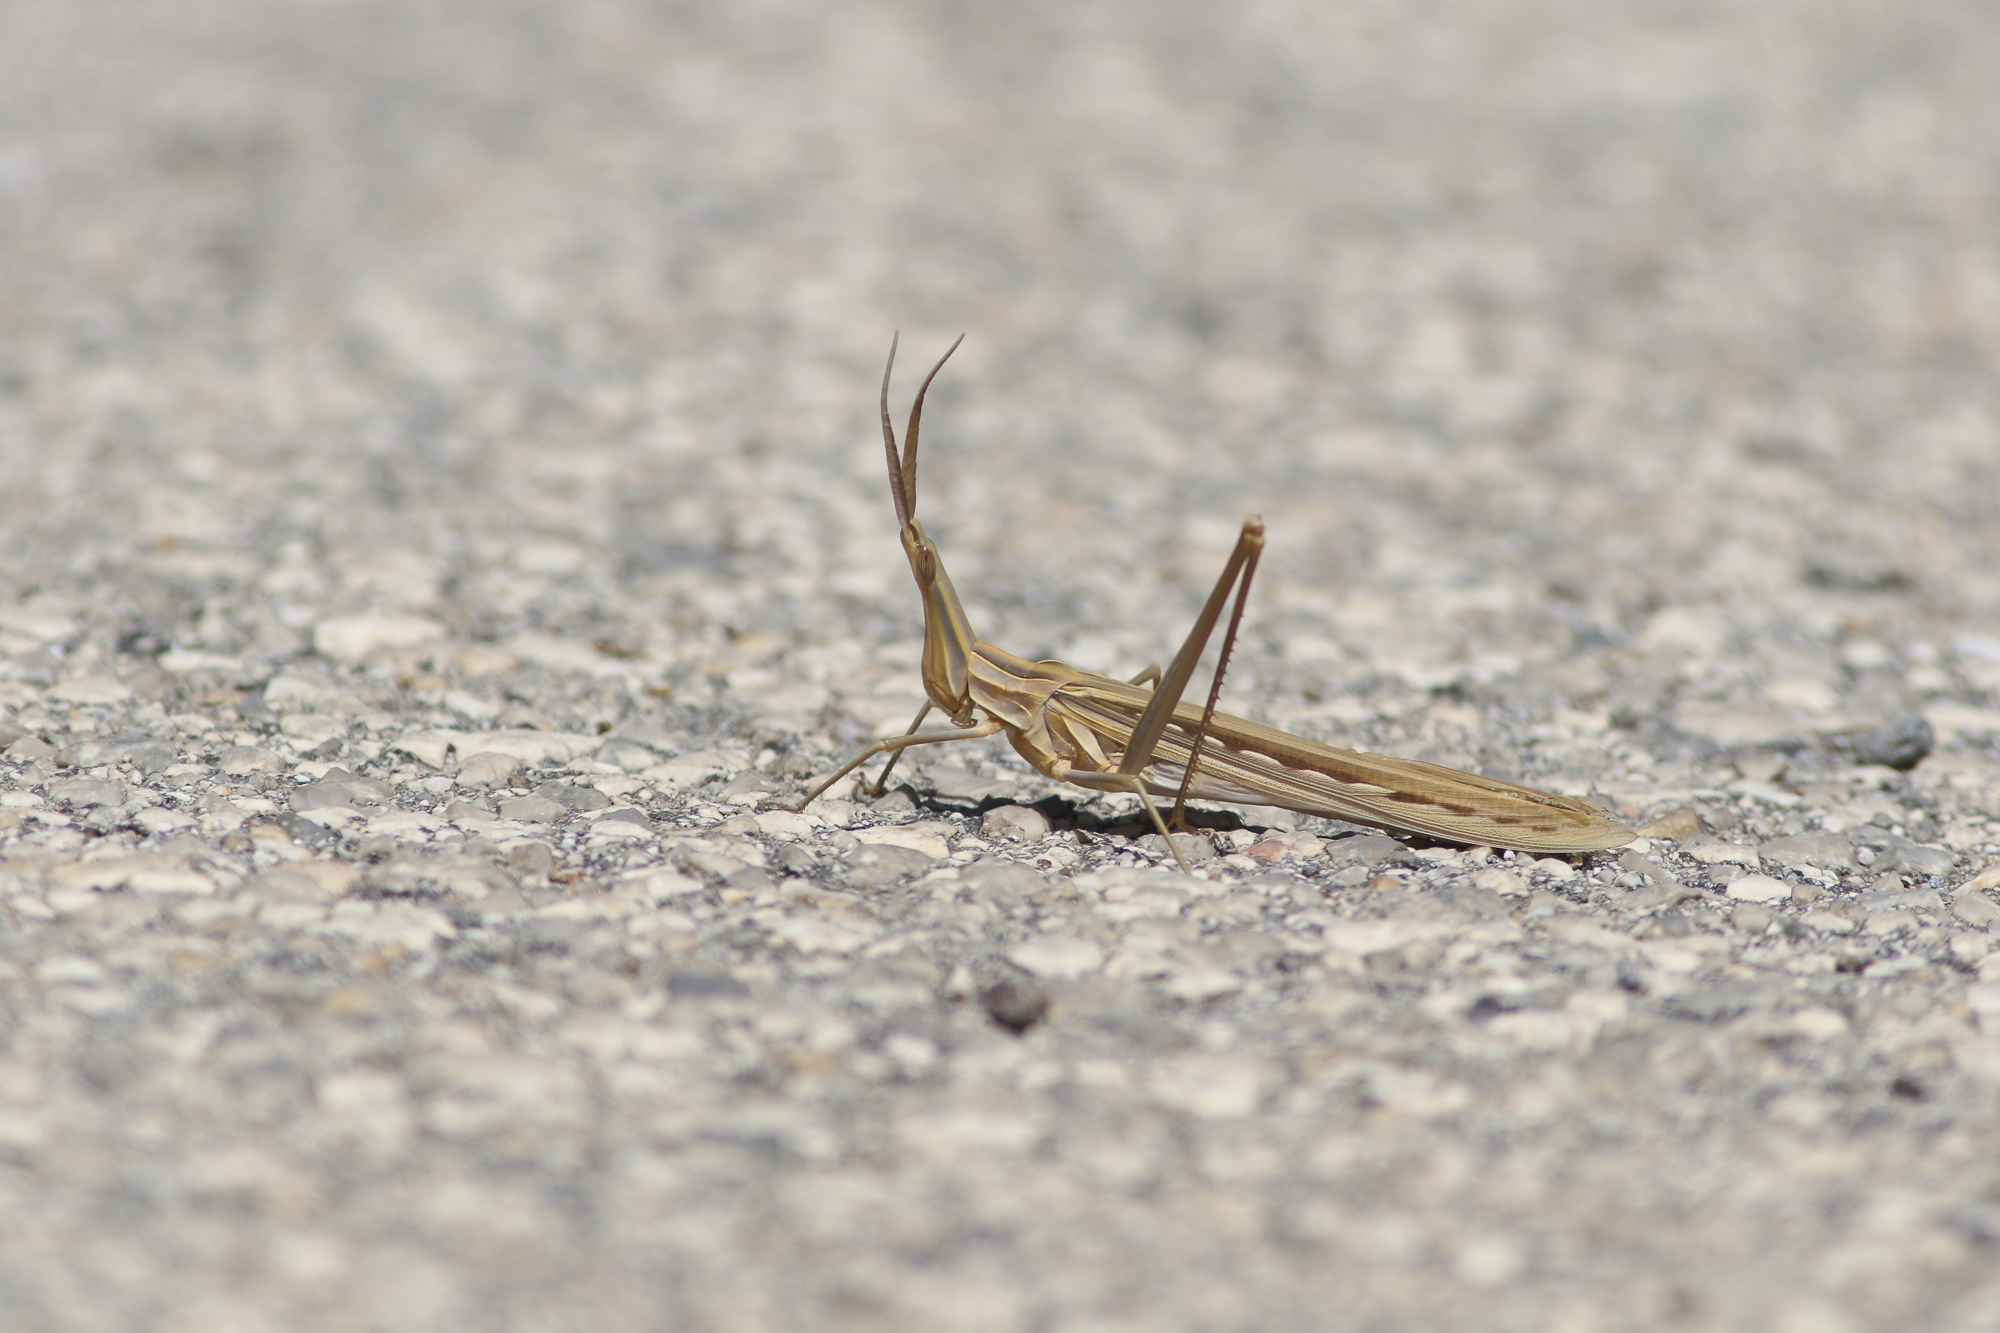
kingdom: Animalia
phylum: Arthropoda
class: Insecta
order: Orthoptera
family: Acrididae
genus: Truxalis
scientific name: Truxalis nasuta
